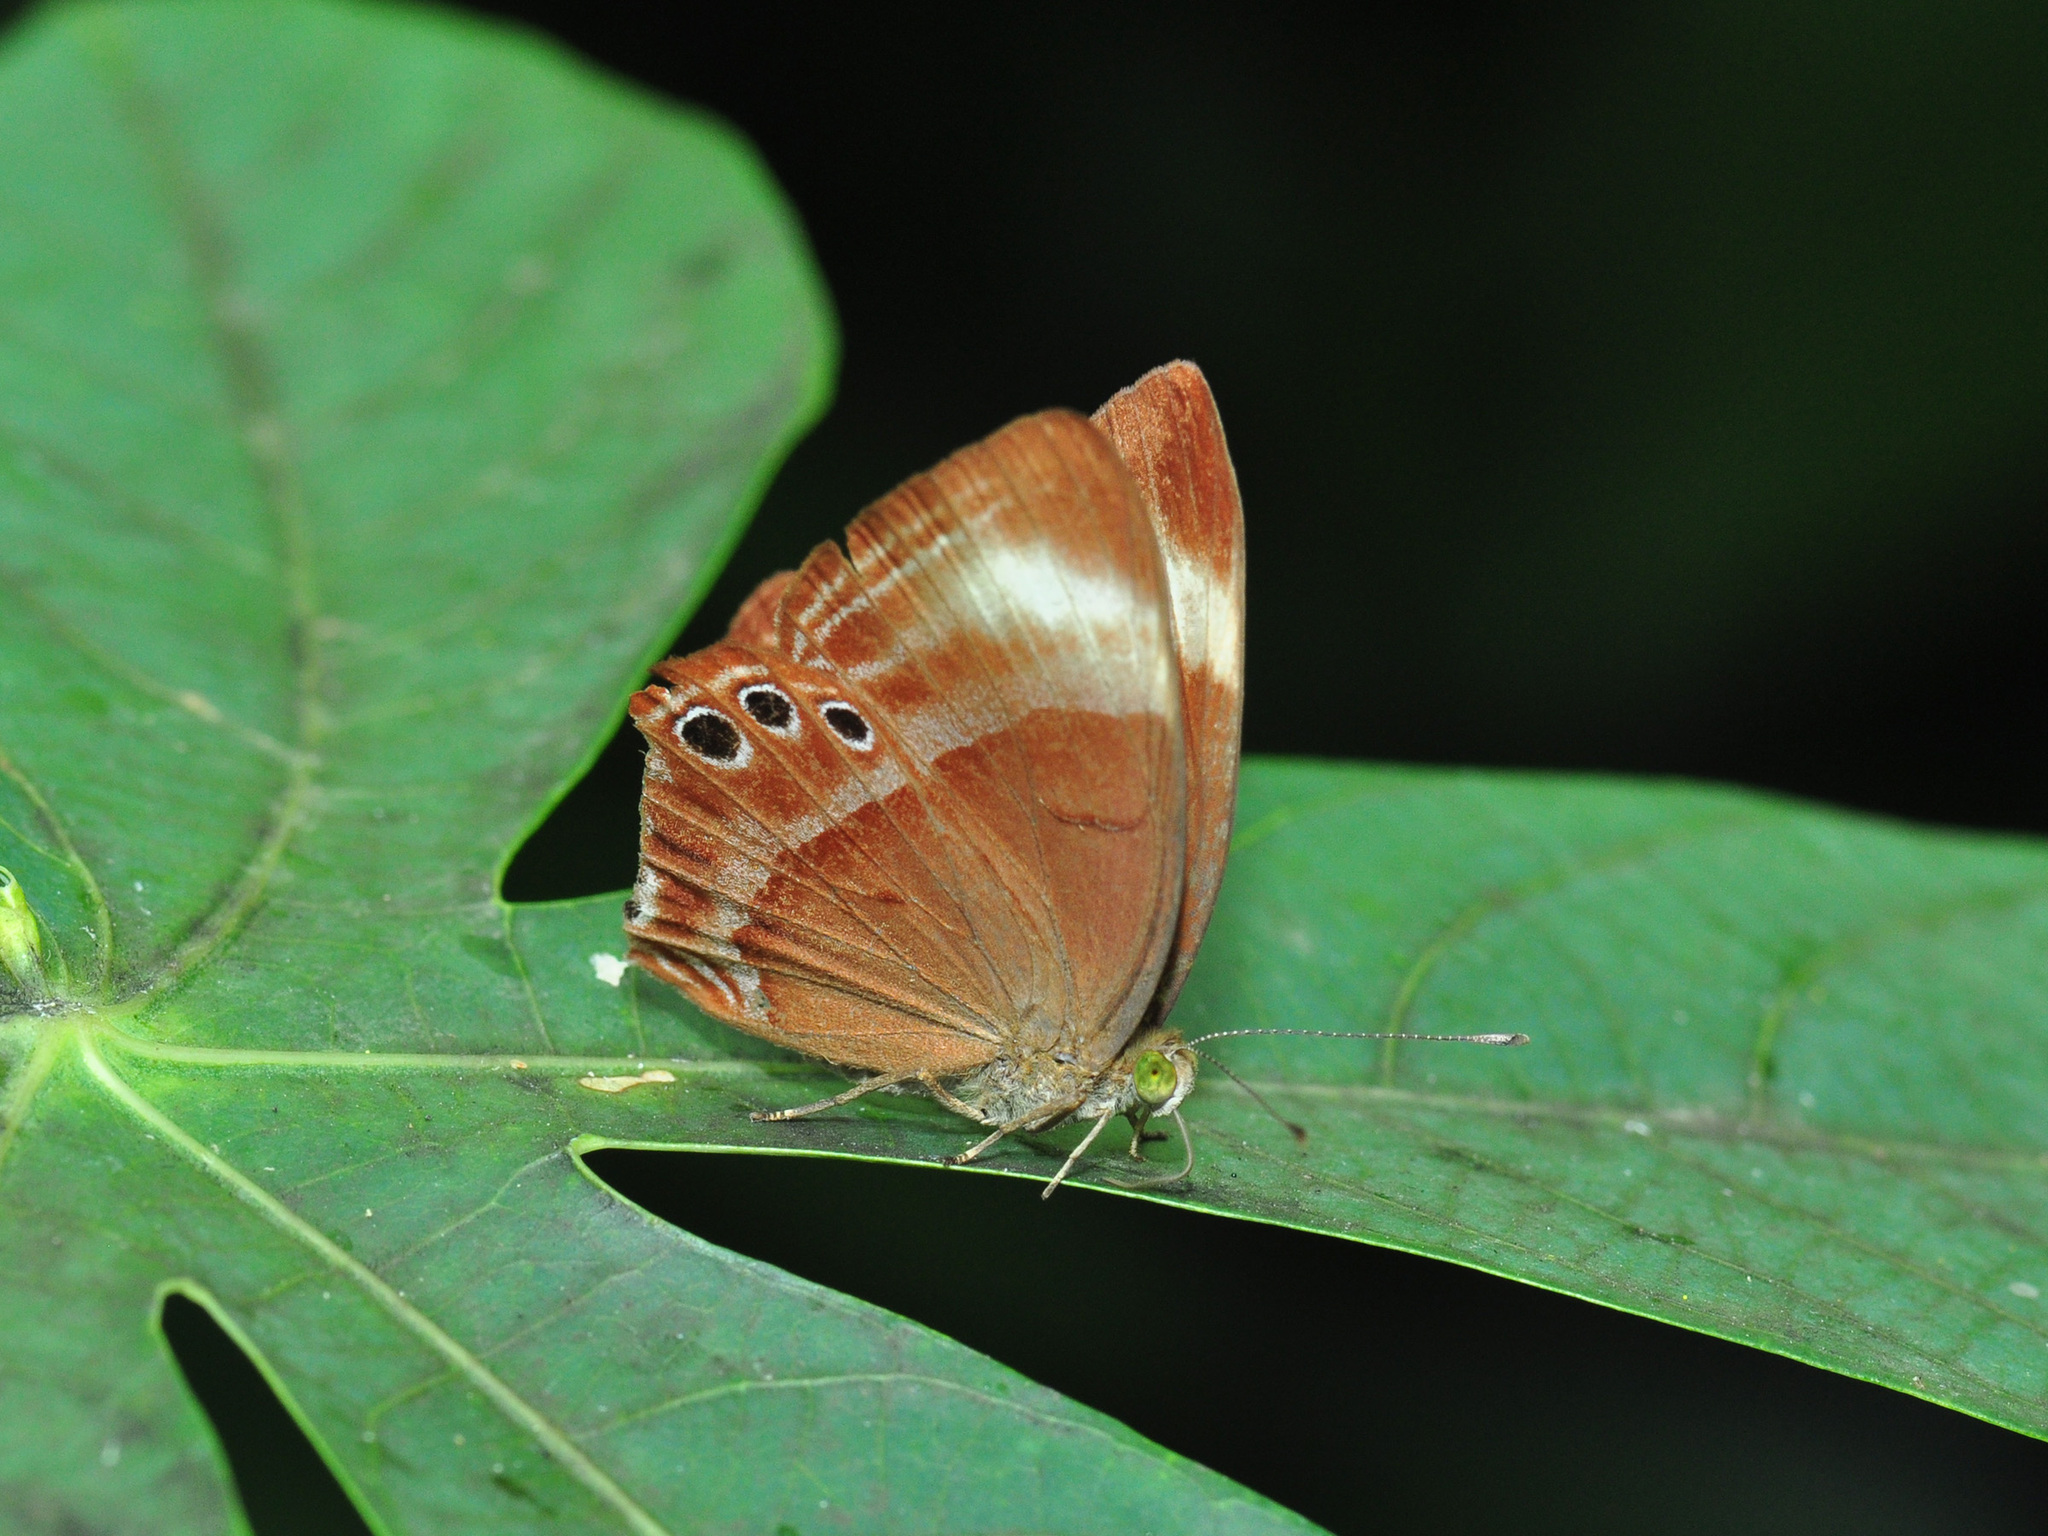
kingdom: Animalia
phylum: Arthropoda
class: Insecta
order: Lepidoptera
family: Lycaenidae
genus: Abisara
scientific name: Abisara geza
